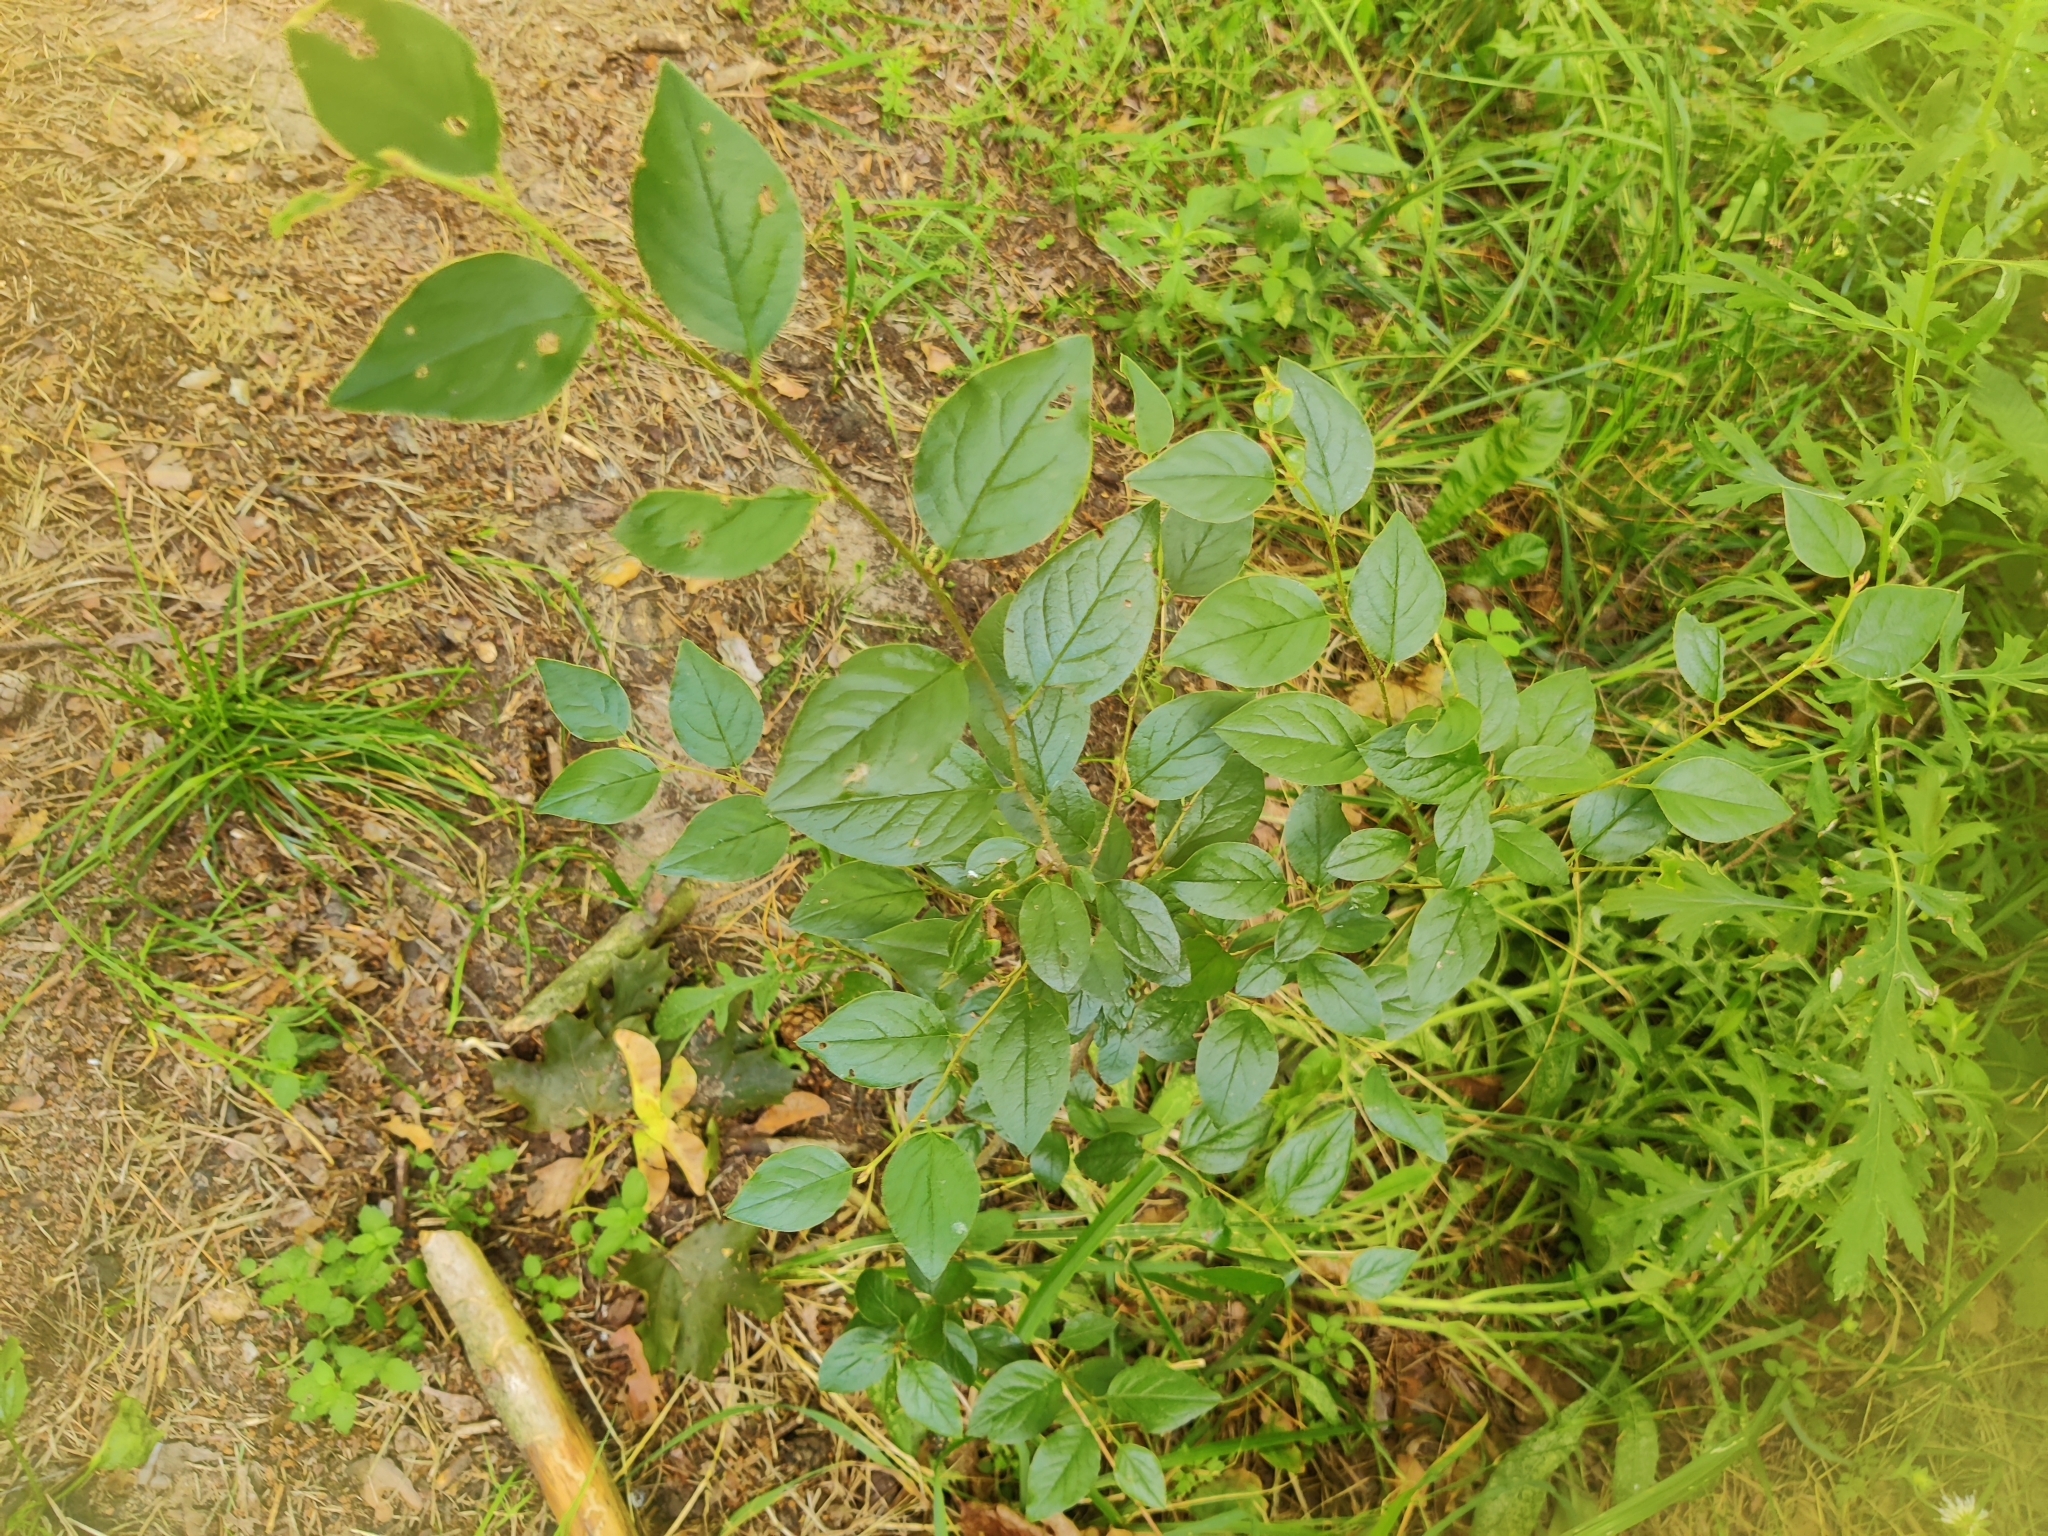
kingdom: Plantae
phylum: Tracheophyta
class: Magnoliopsida
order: Rosales
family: Rosaceae
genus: Cotoneaster
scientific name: Cotoneaster acutifolius
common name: Peking cotoneaster
